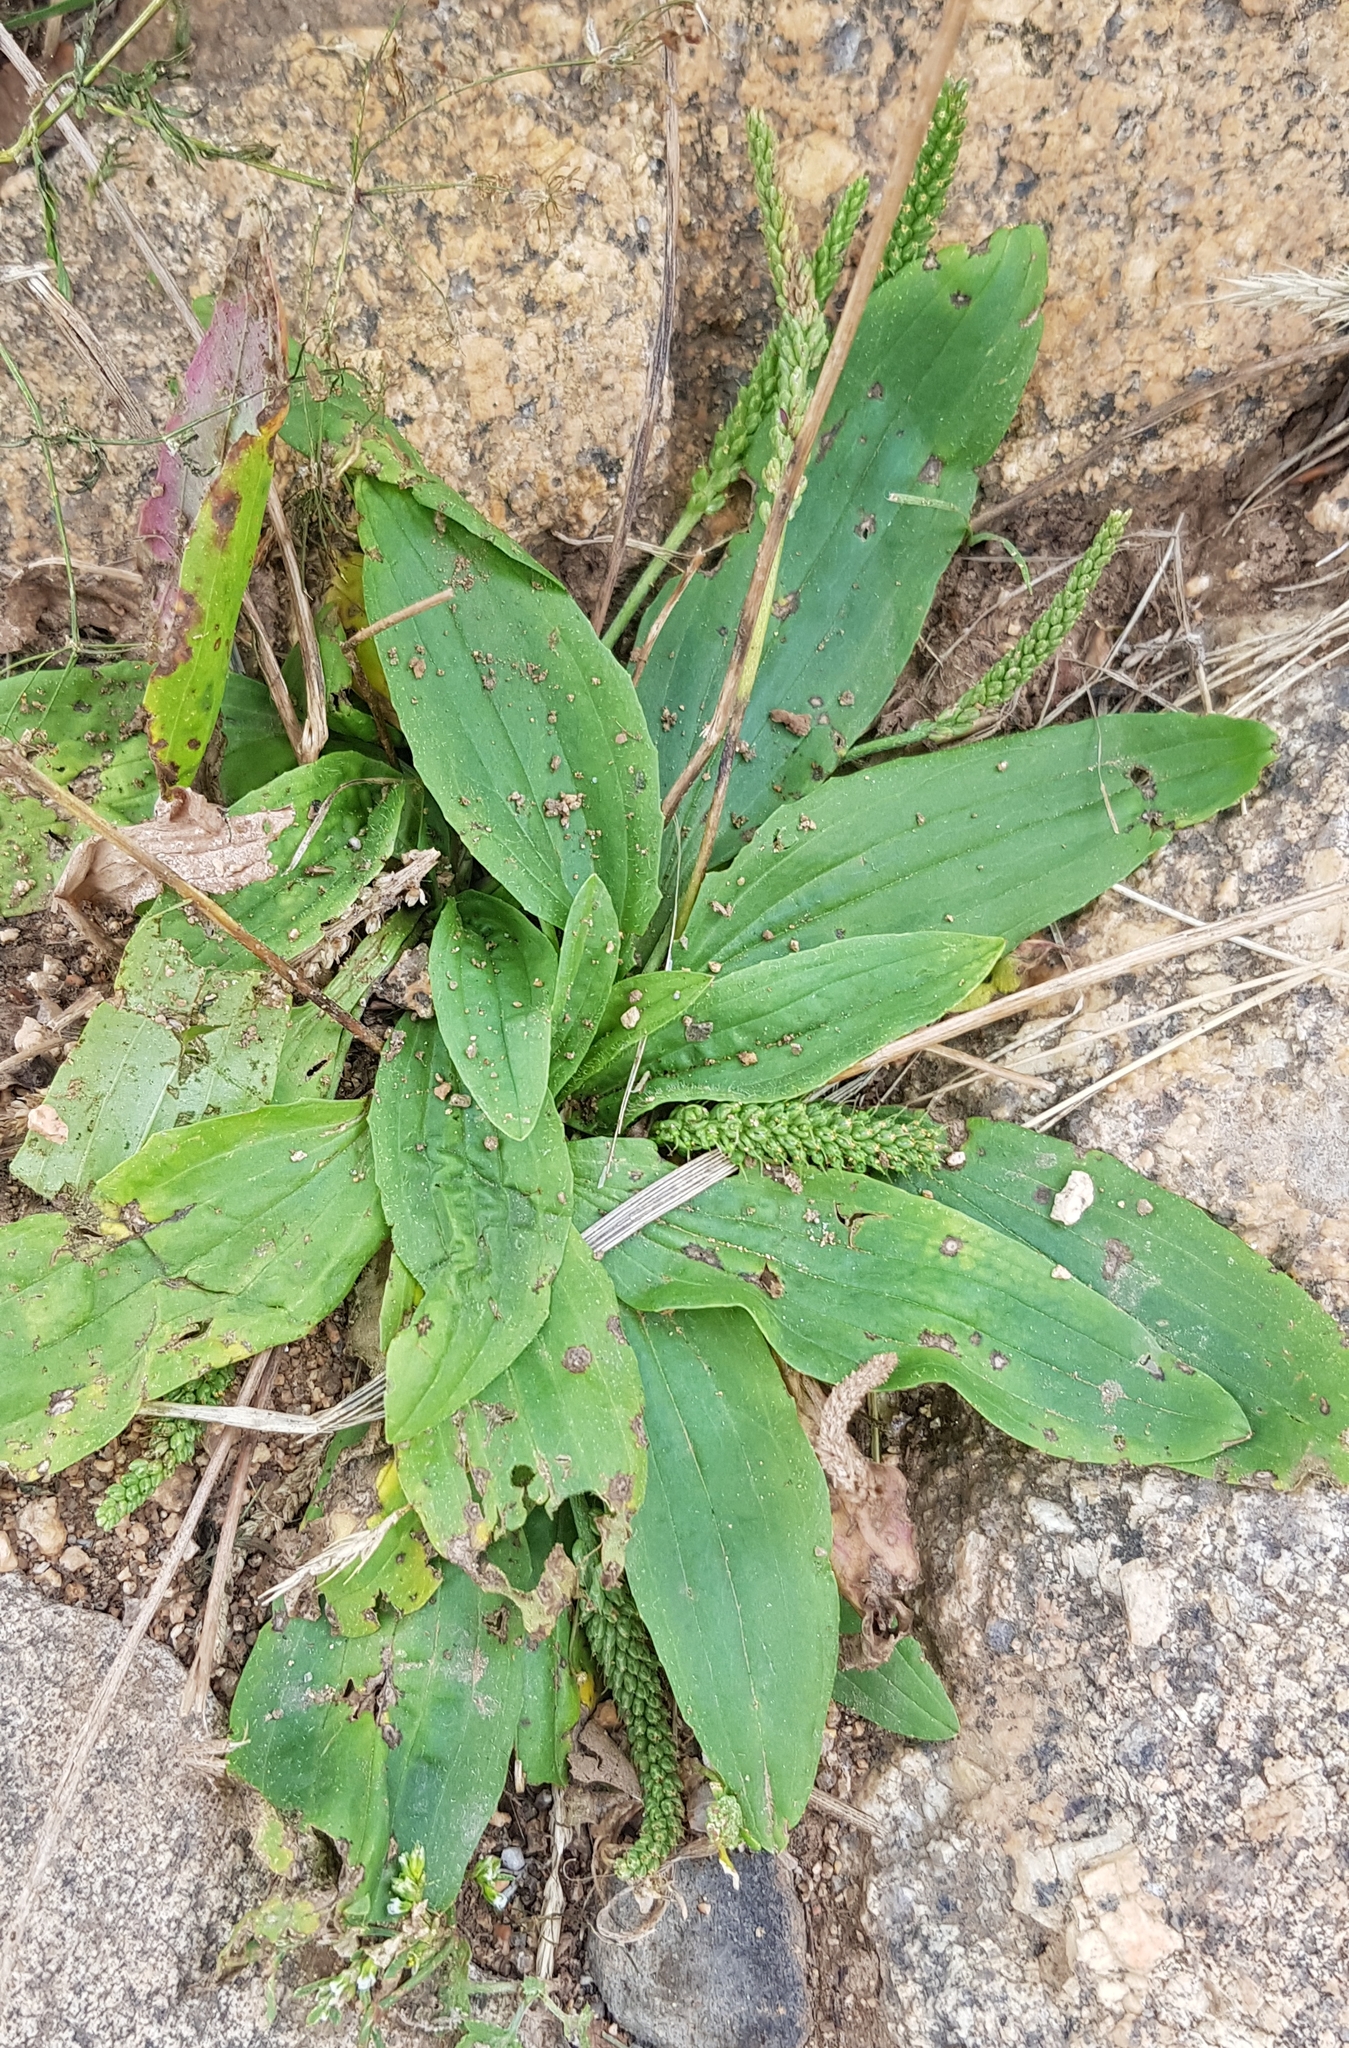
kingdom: Plantae
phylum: Tracheophyta
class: Magnoliopsida
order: Lamiales
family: Plantaginaceae
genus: Plantago
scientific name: Plantago depressa
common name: Depressed plantain
